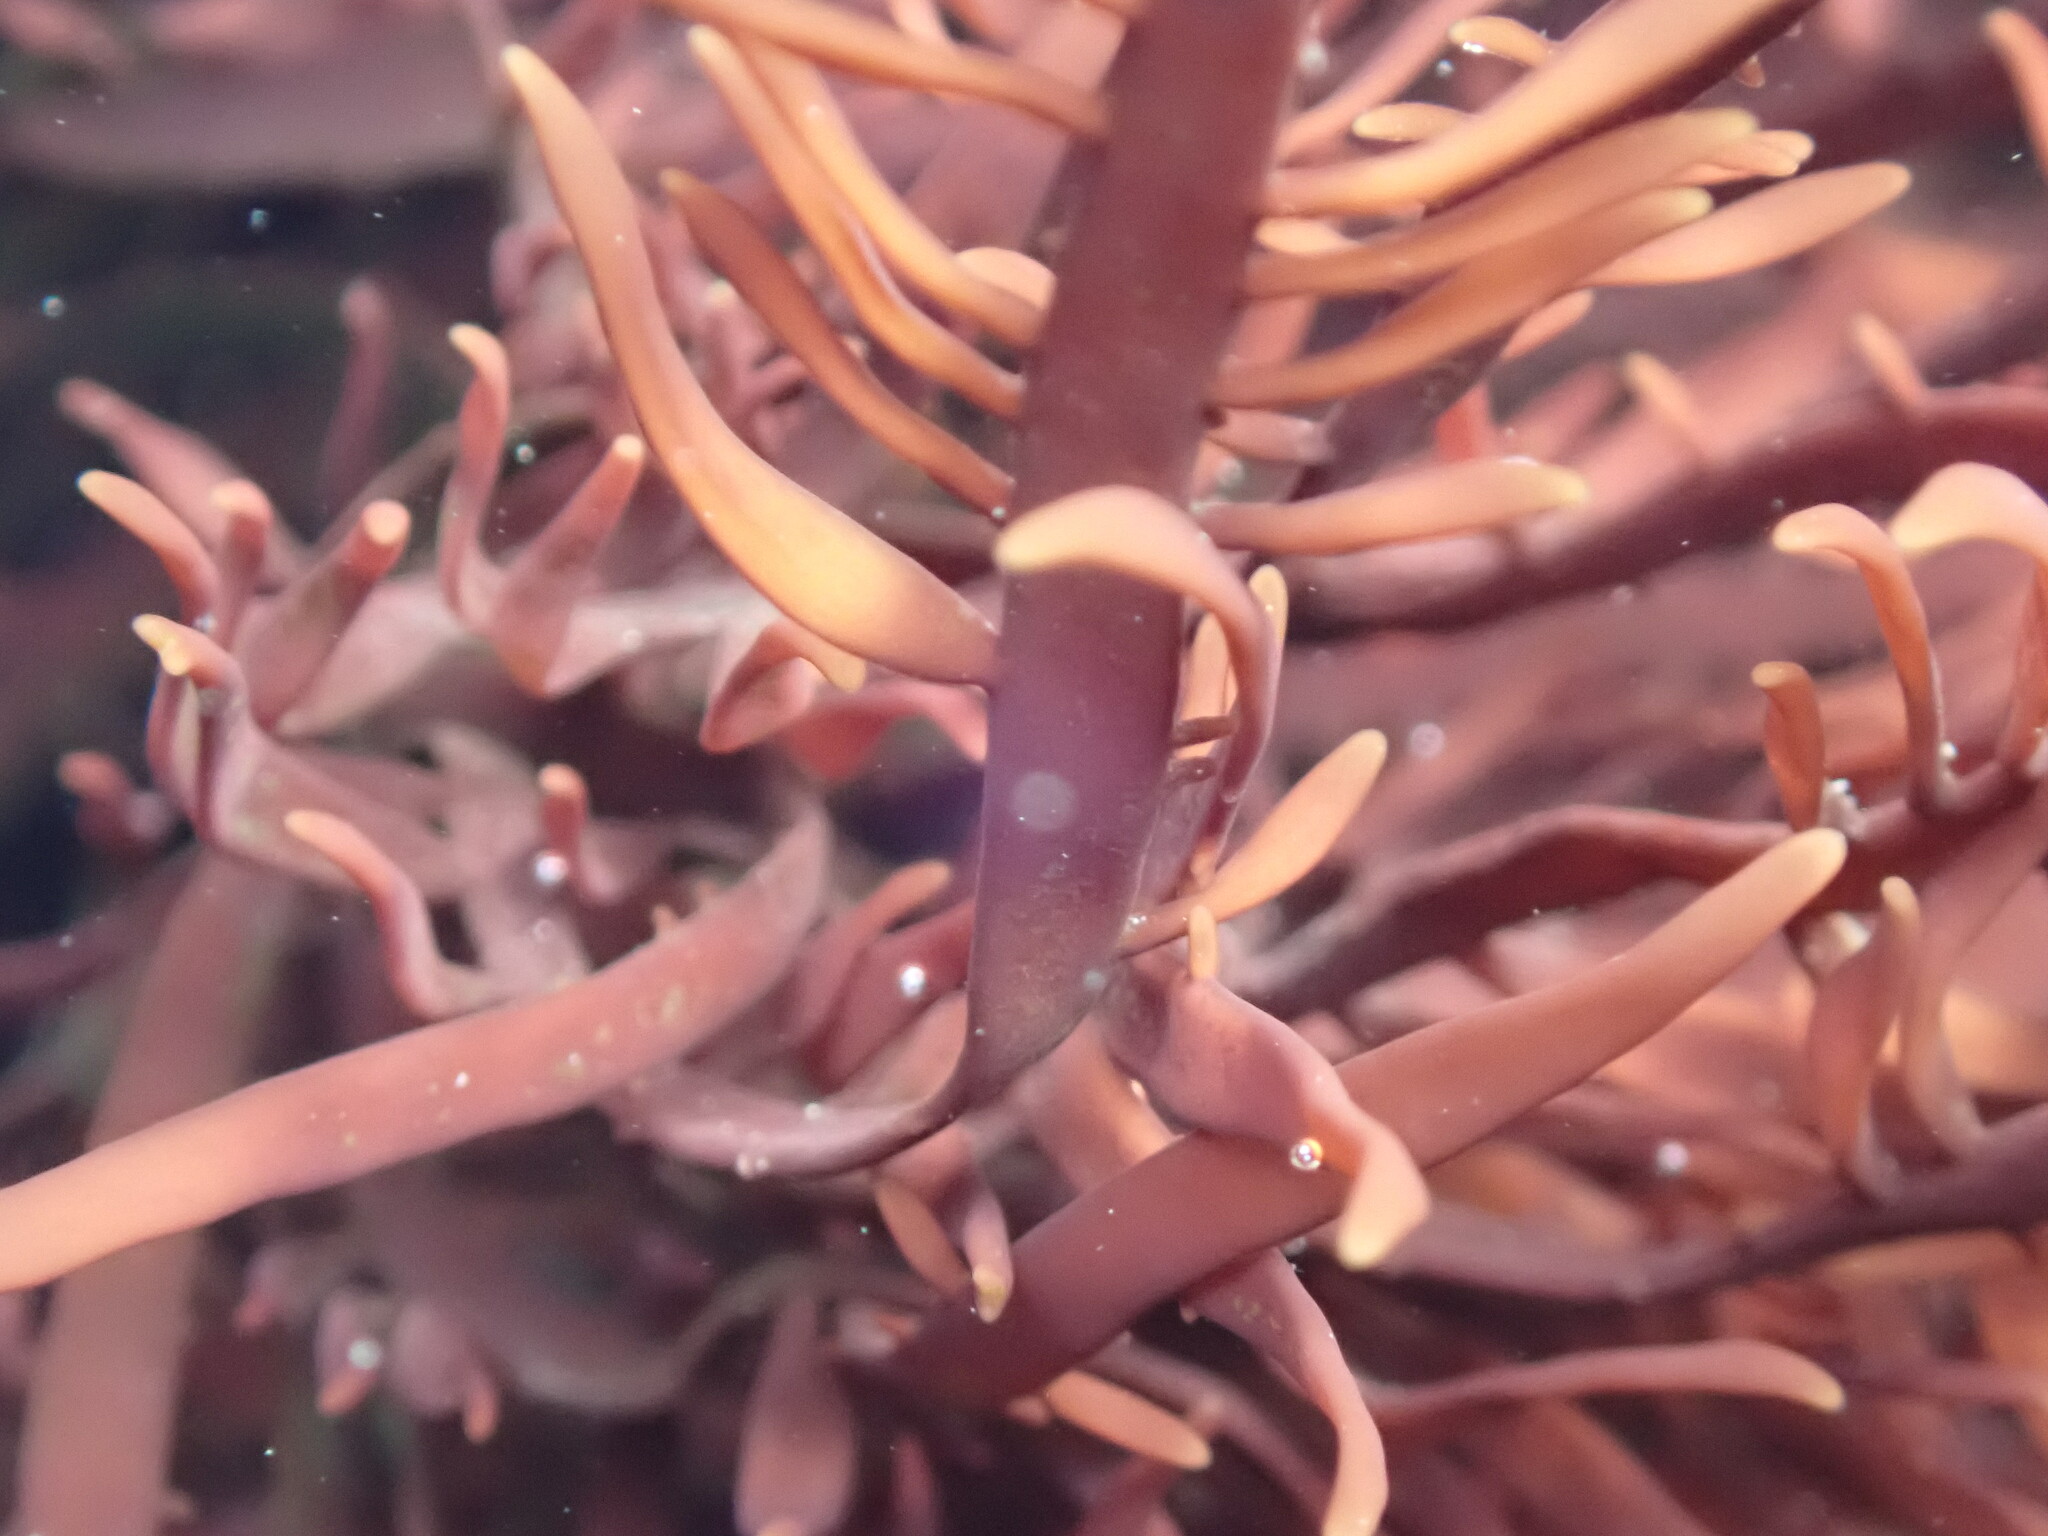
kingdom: Plantae
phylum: Rhodophyta
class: Florideophyceae
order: Halymeniales
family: Halymeniaceae
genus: Grateloupia
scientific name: Grateloupia Prionitis lanceolata
